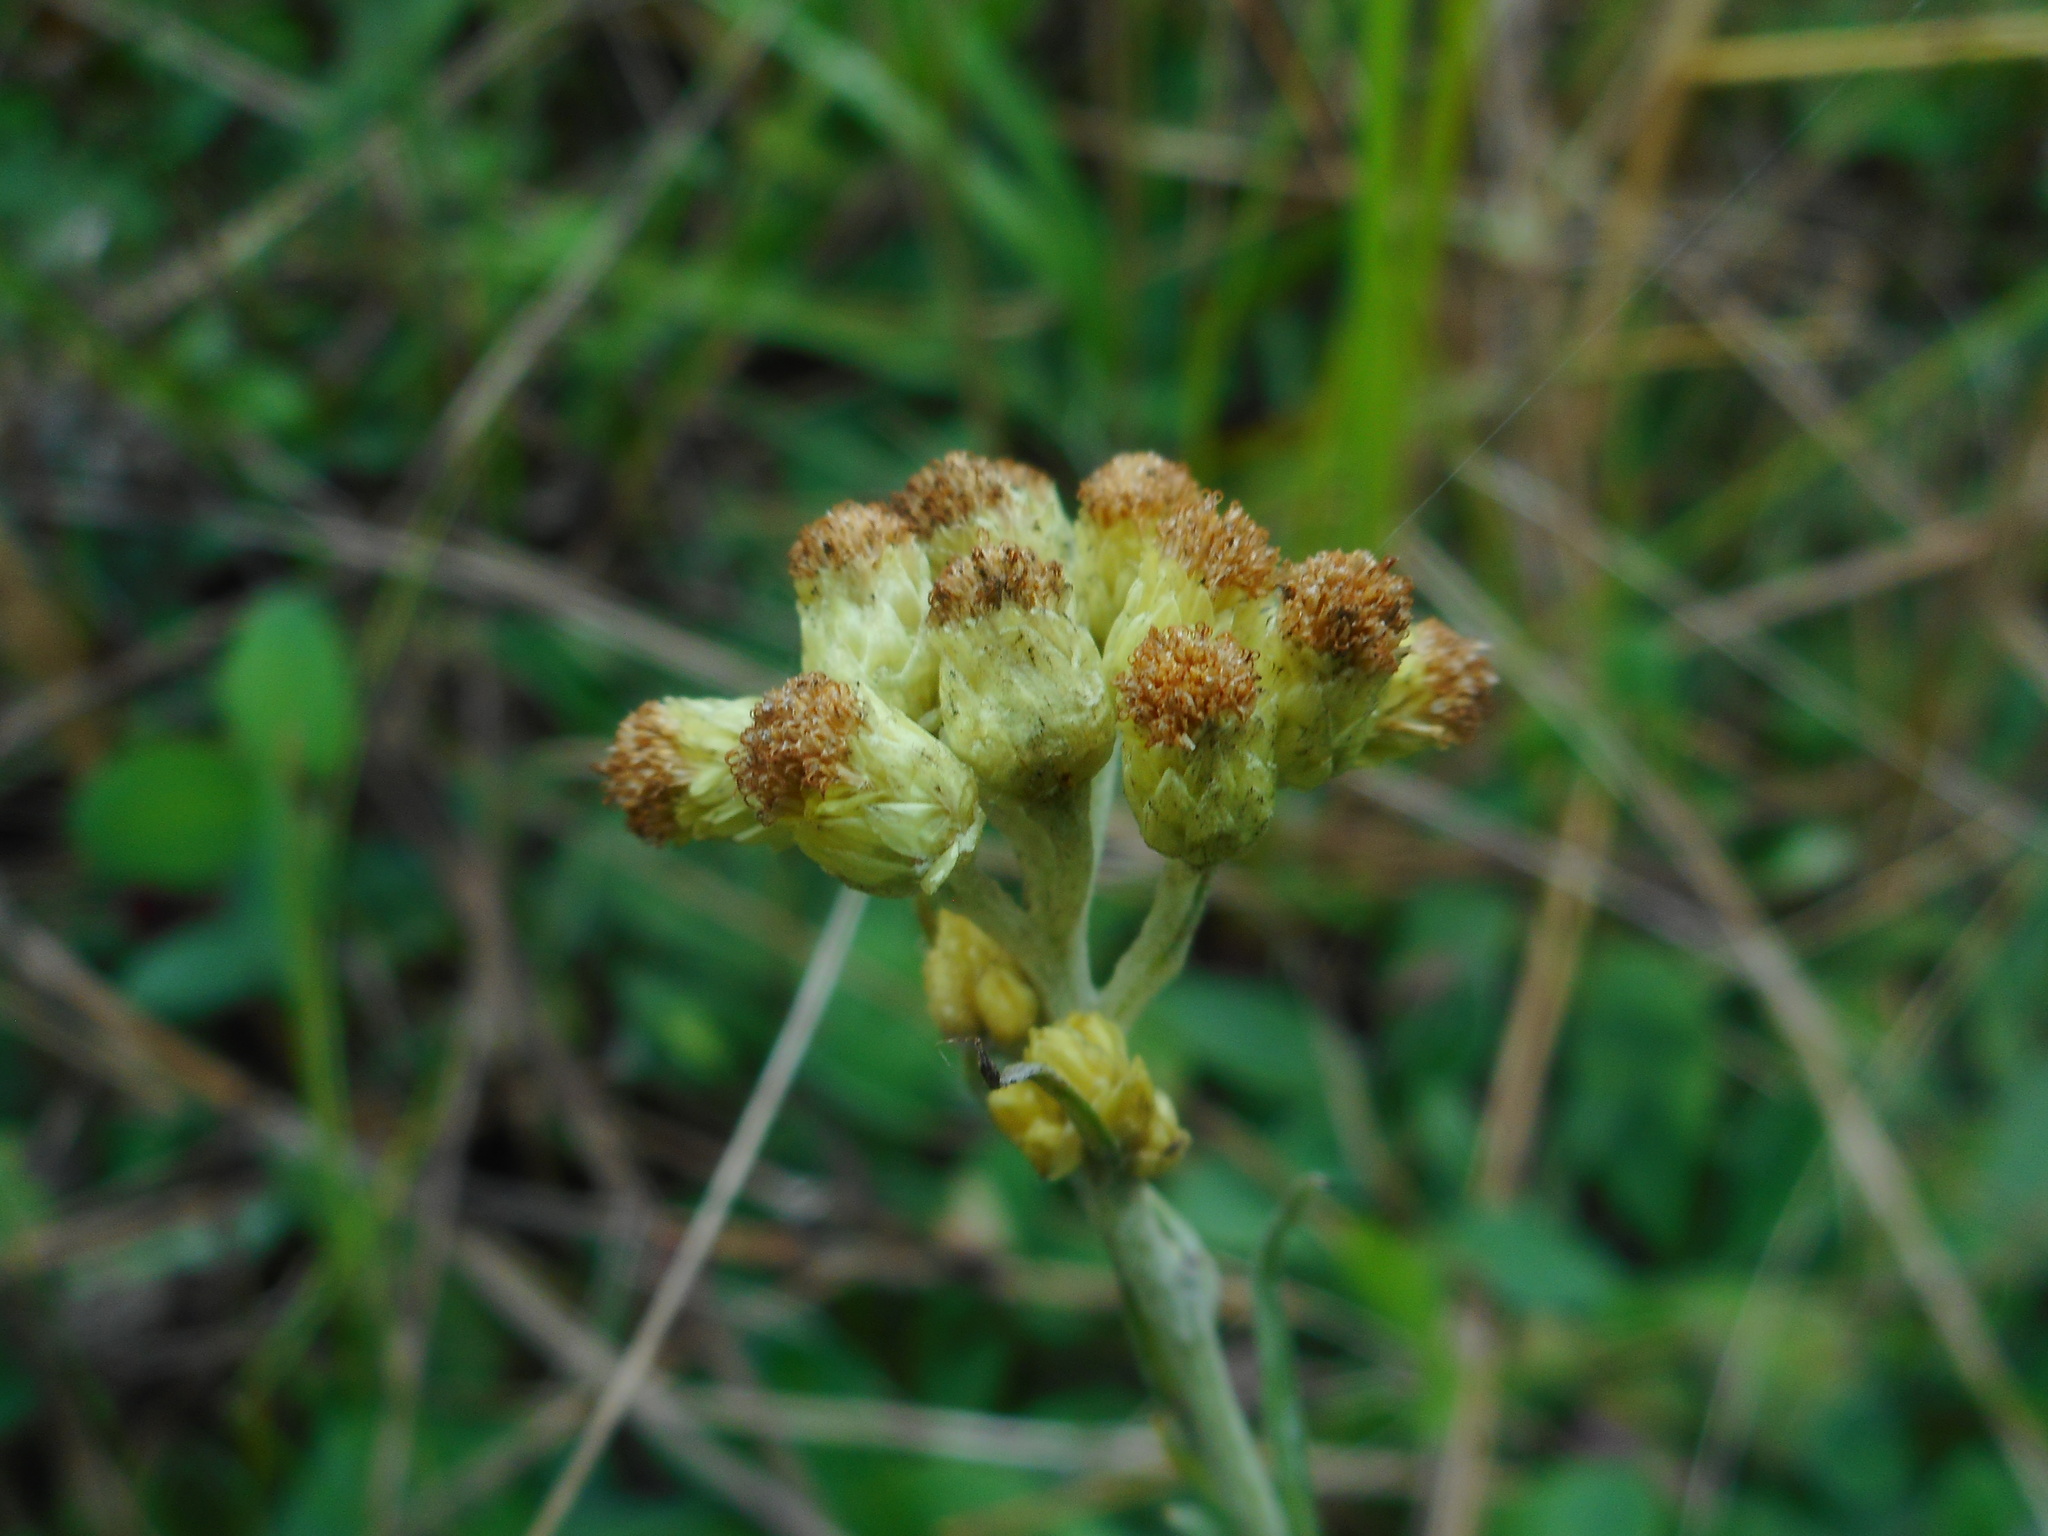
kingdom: Plantae
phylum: Tracheophyta
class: Magnoliopsida
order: Asterales
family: Asteraceae
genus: Helichrysum
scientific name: Helichrysum arenarium
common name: Strawflower
